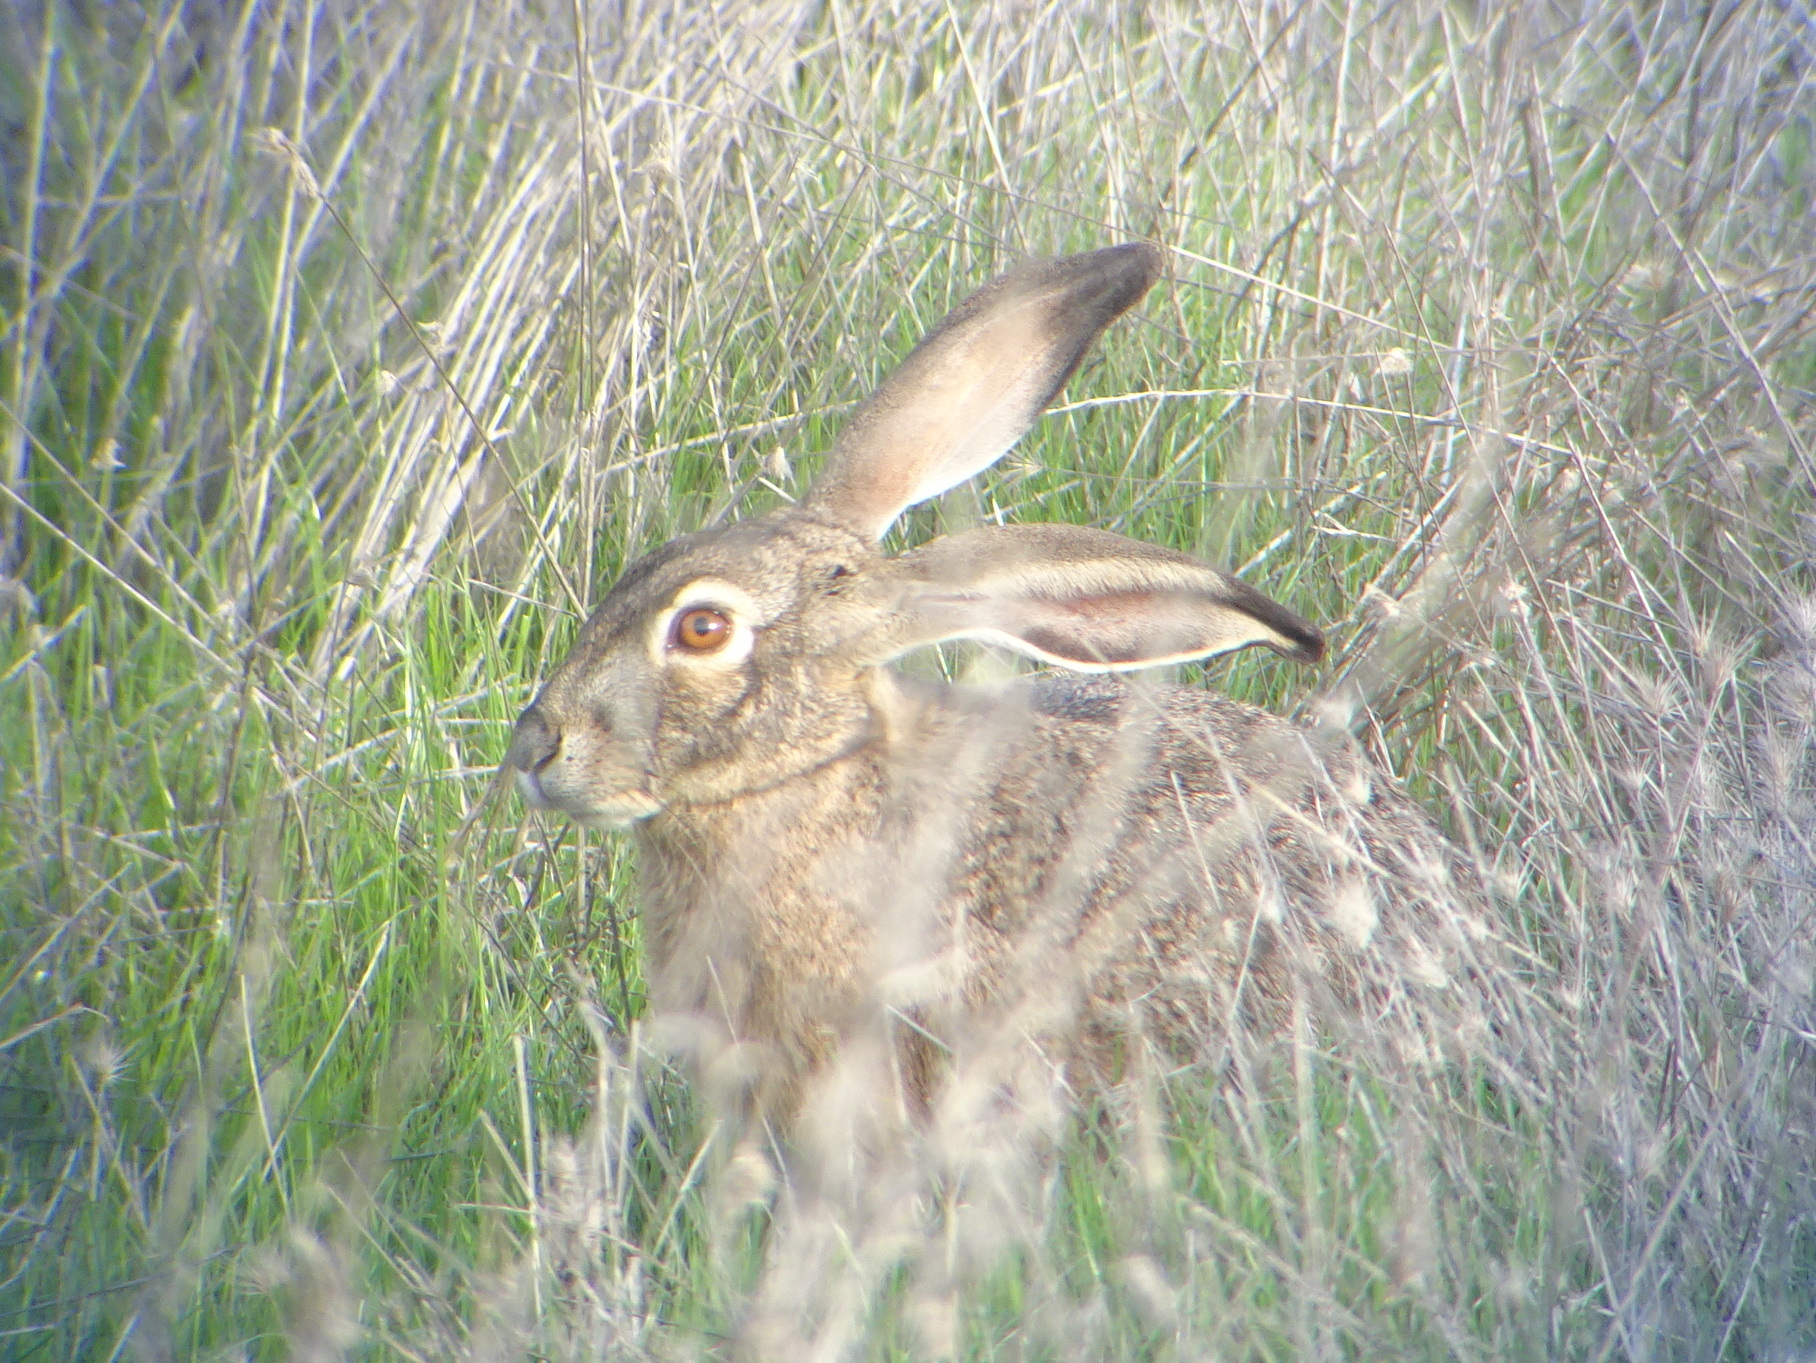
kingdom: Animalia
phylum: Chordata
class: Mammalia
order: Lagomorpha
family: Leporidae
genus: Lepus
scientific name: Lepus californicus
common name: Black-tailed jackrabbit
